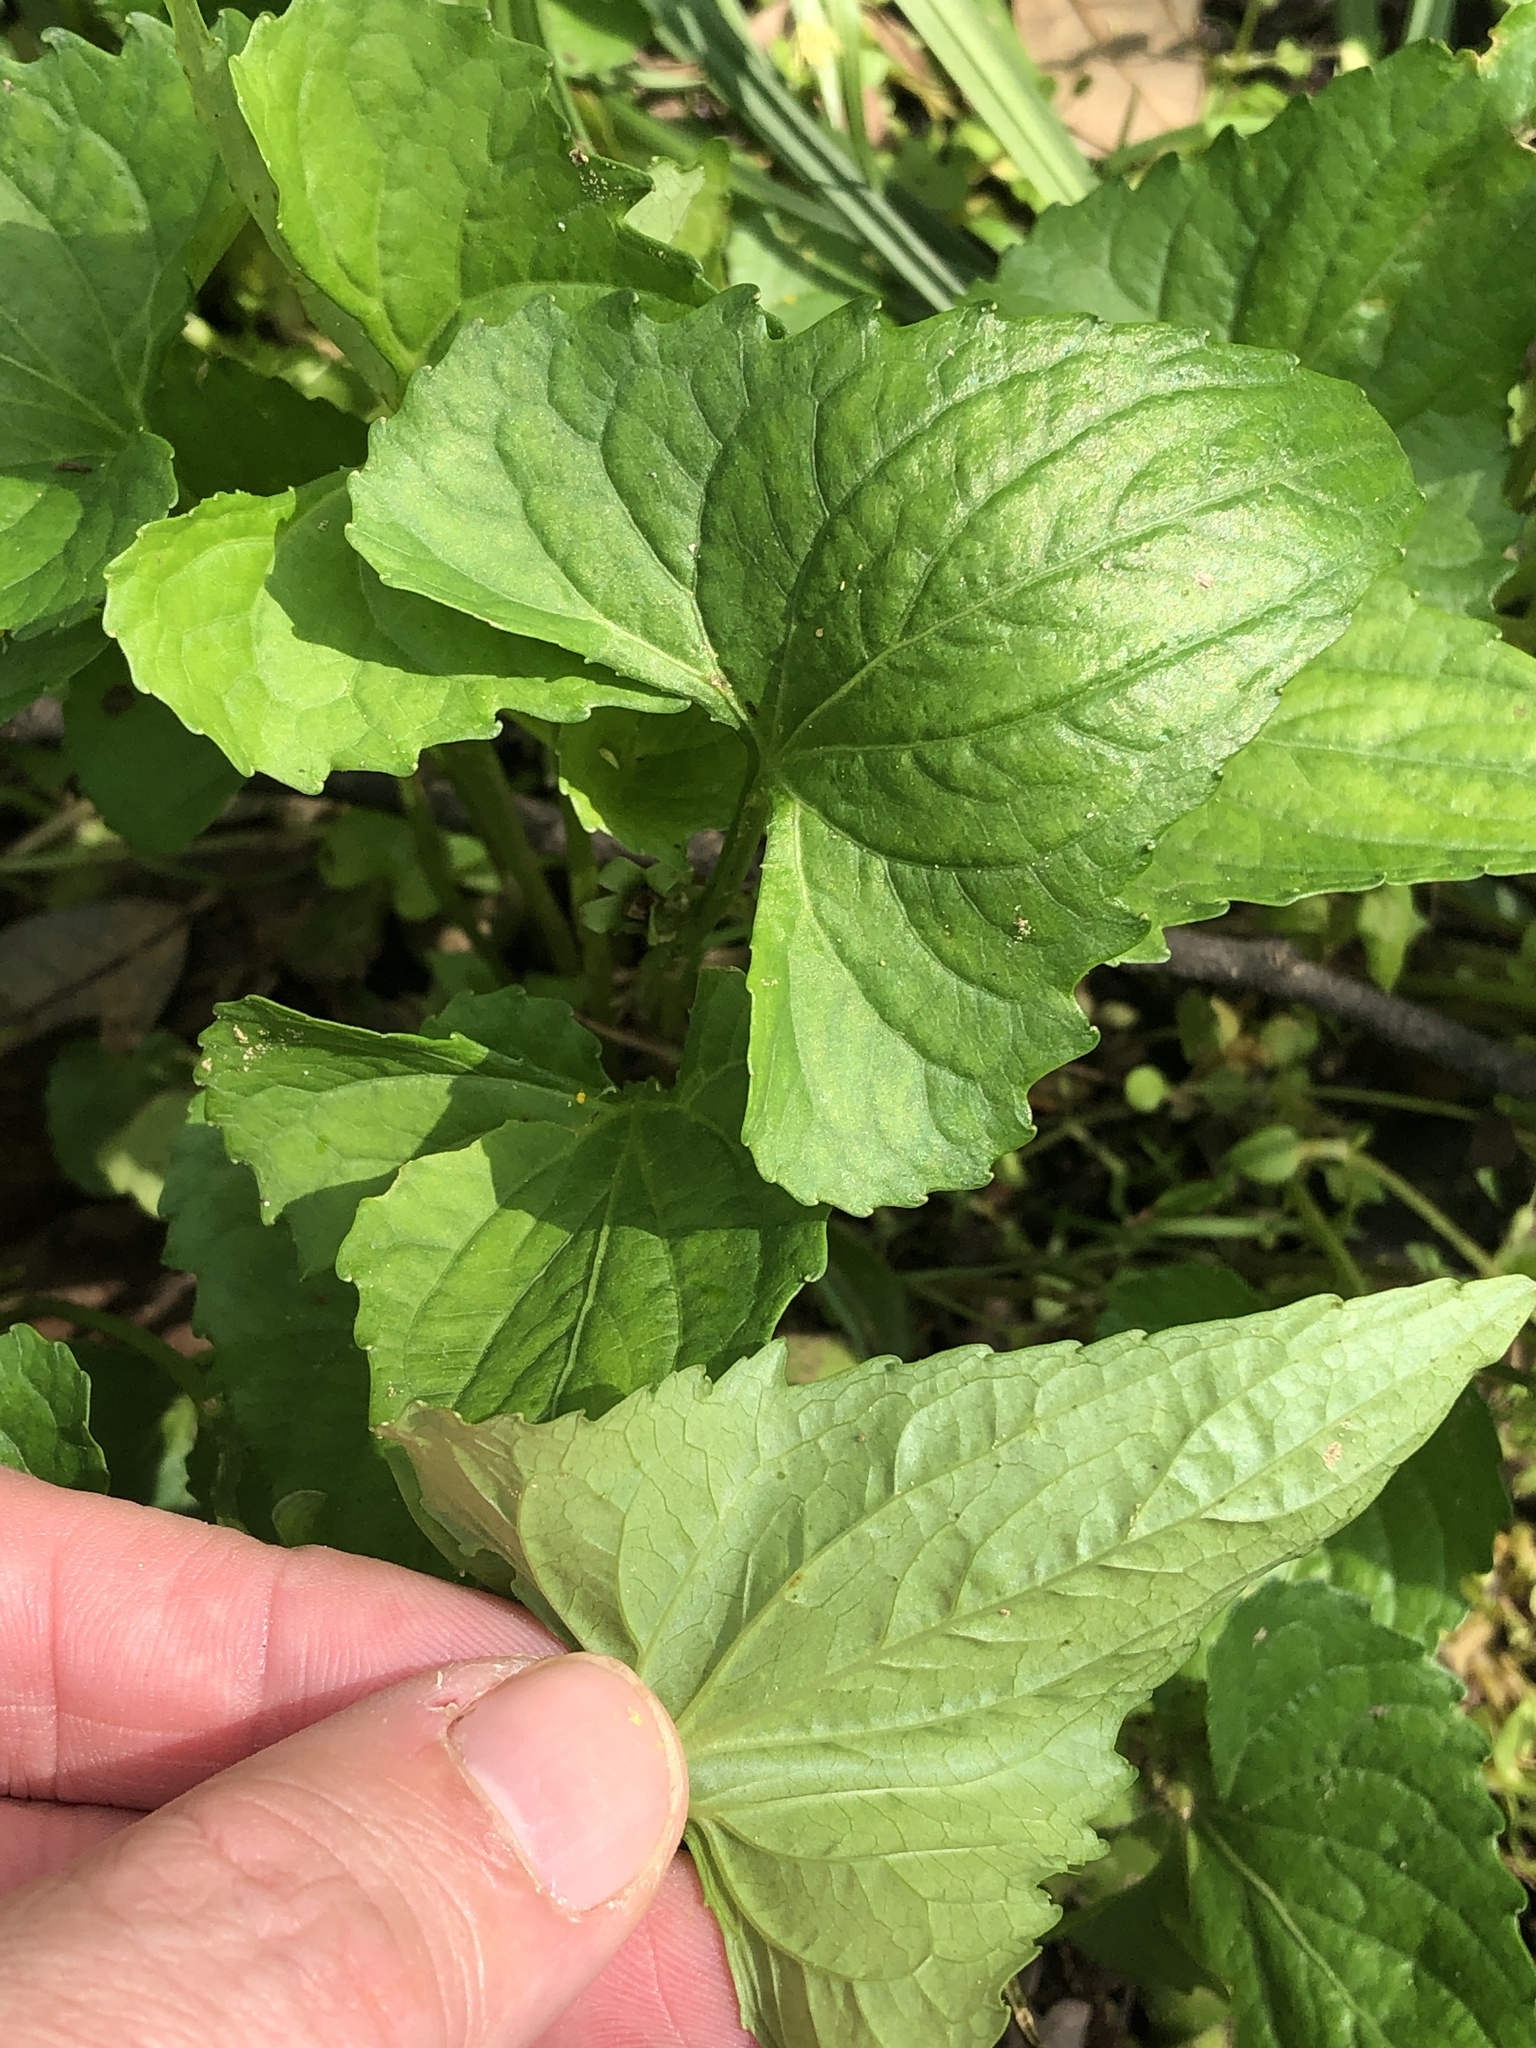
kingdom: Plantae
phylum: Tracheophyta
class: Magnoliopsida
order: Malpighiales
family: Violaceae
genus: Viola
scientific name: Viola missouriensis
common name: Missouri violet
